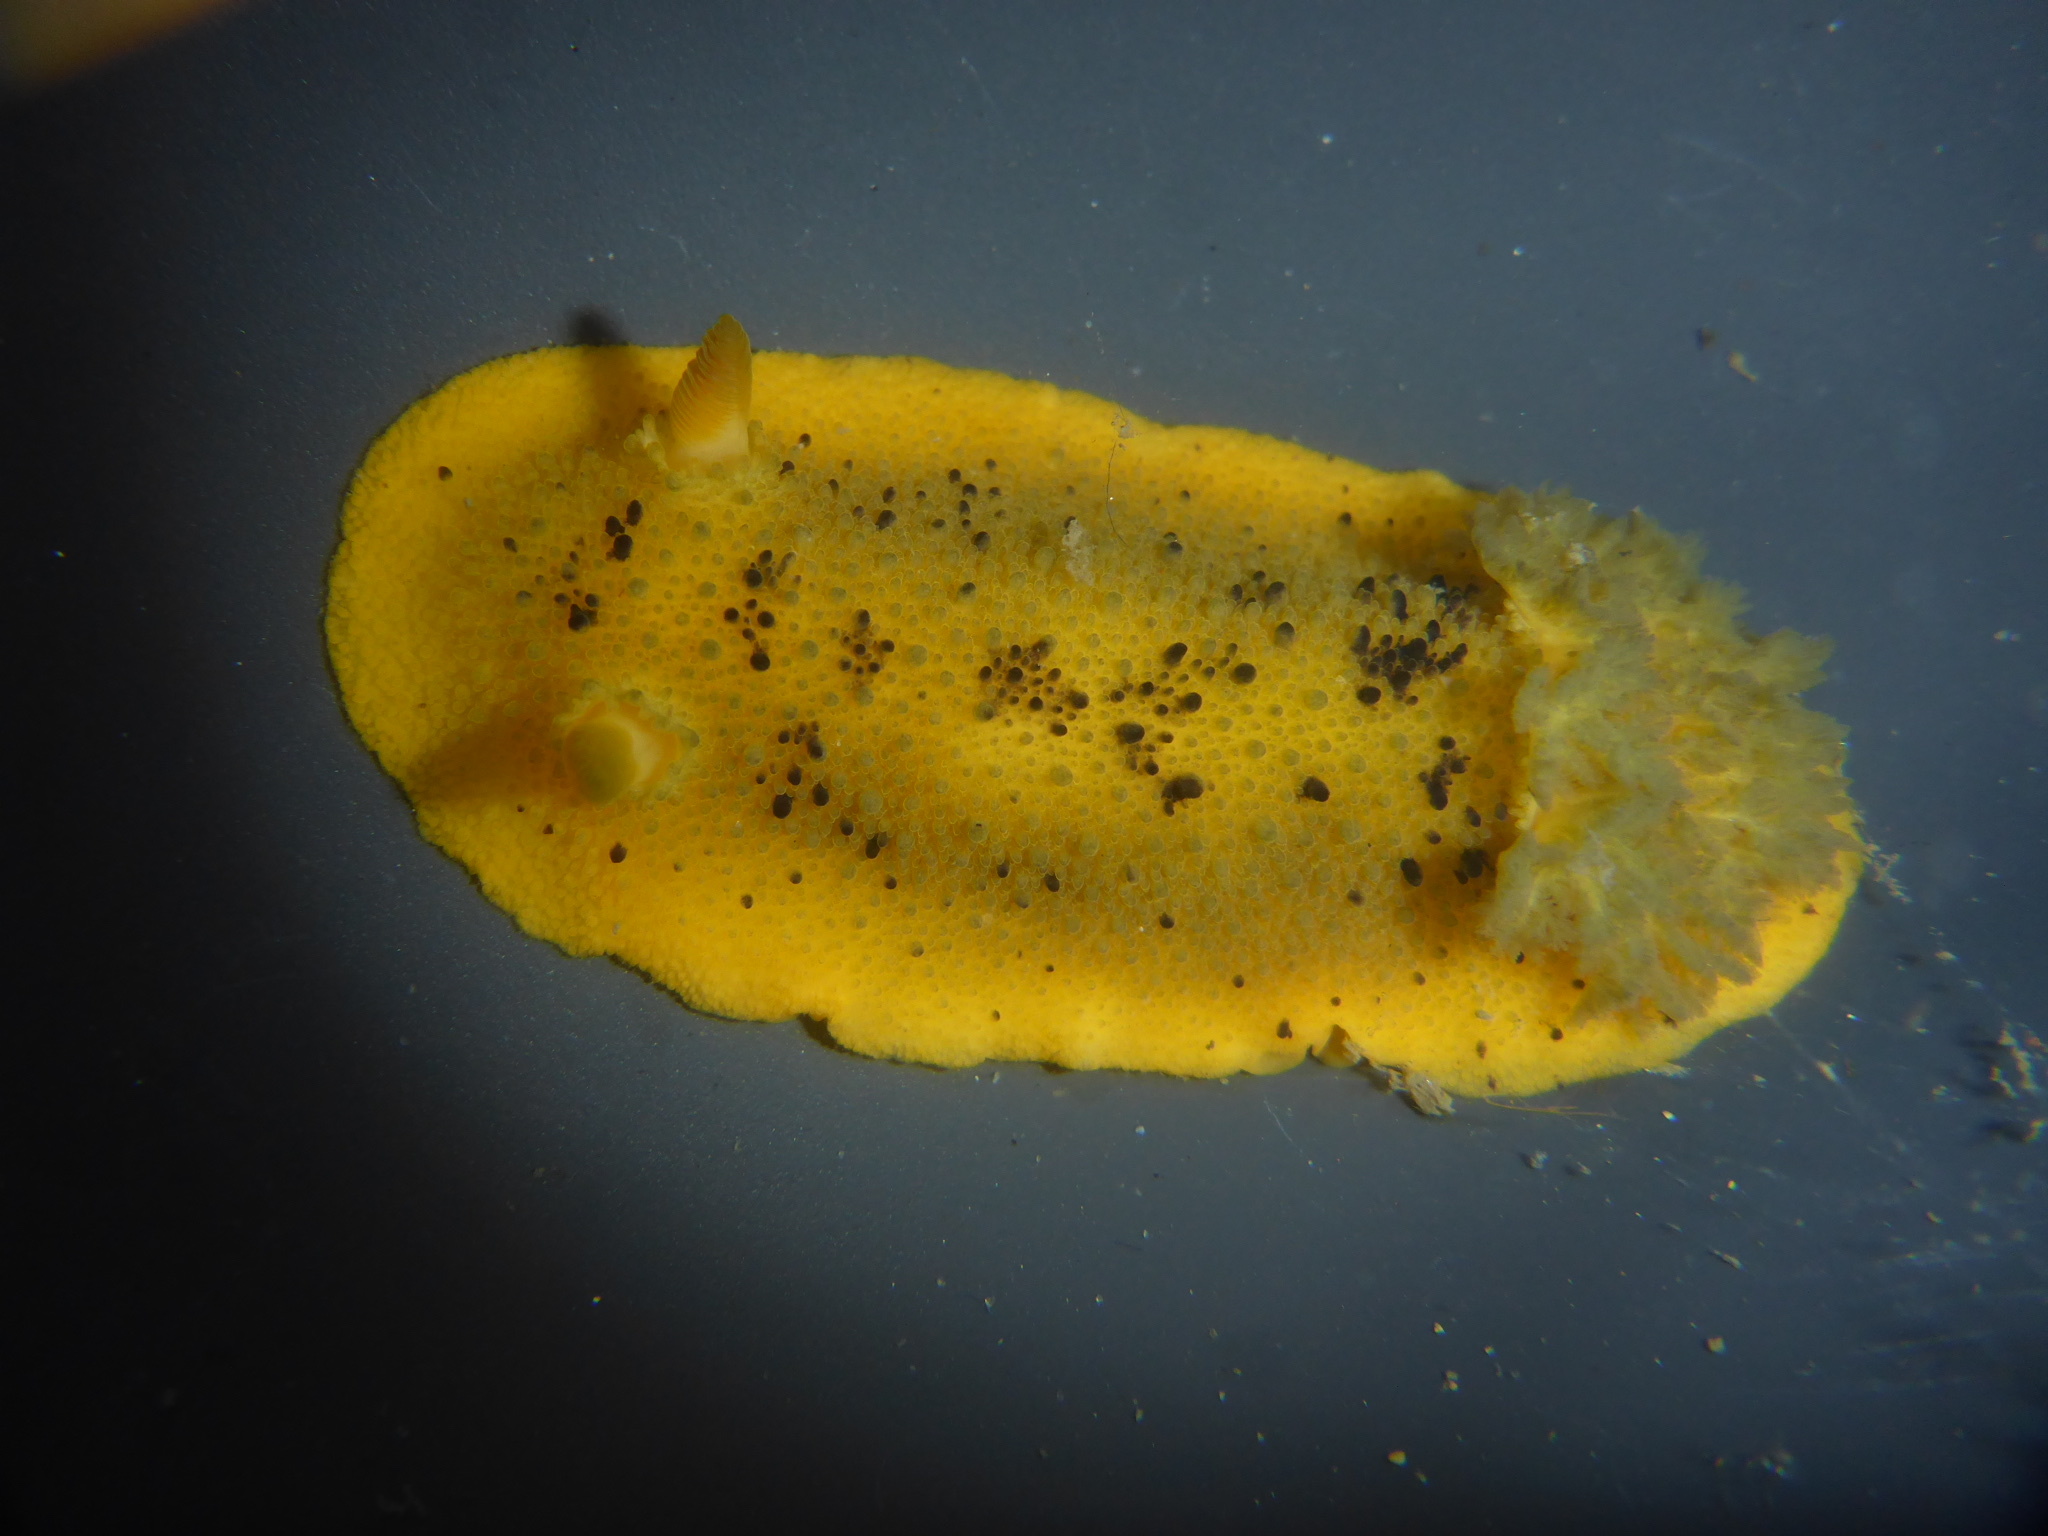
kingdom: Animalia
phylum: Mollusca
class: Gastropoda
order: Nudibranchia
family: Dorididae
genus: Doris
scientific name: Doris montereyensis
